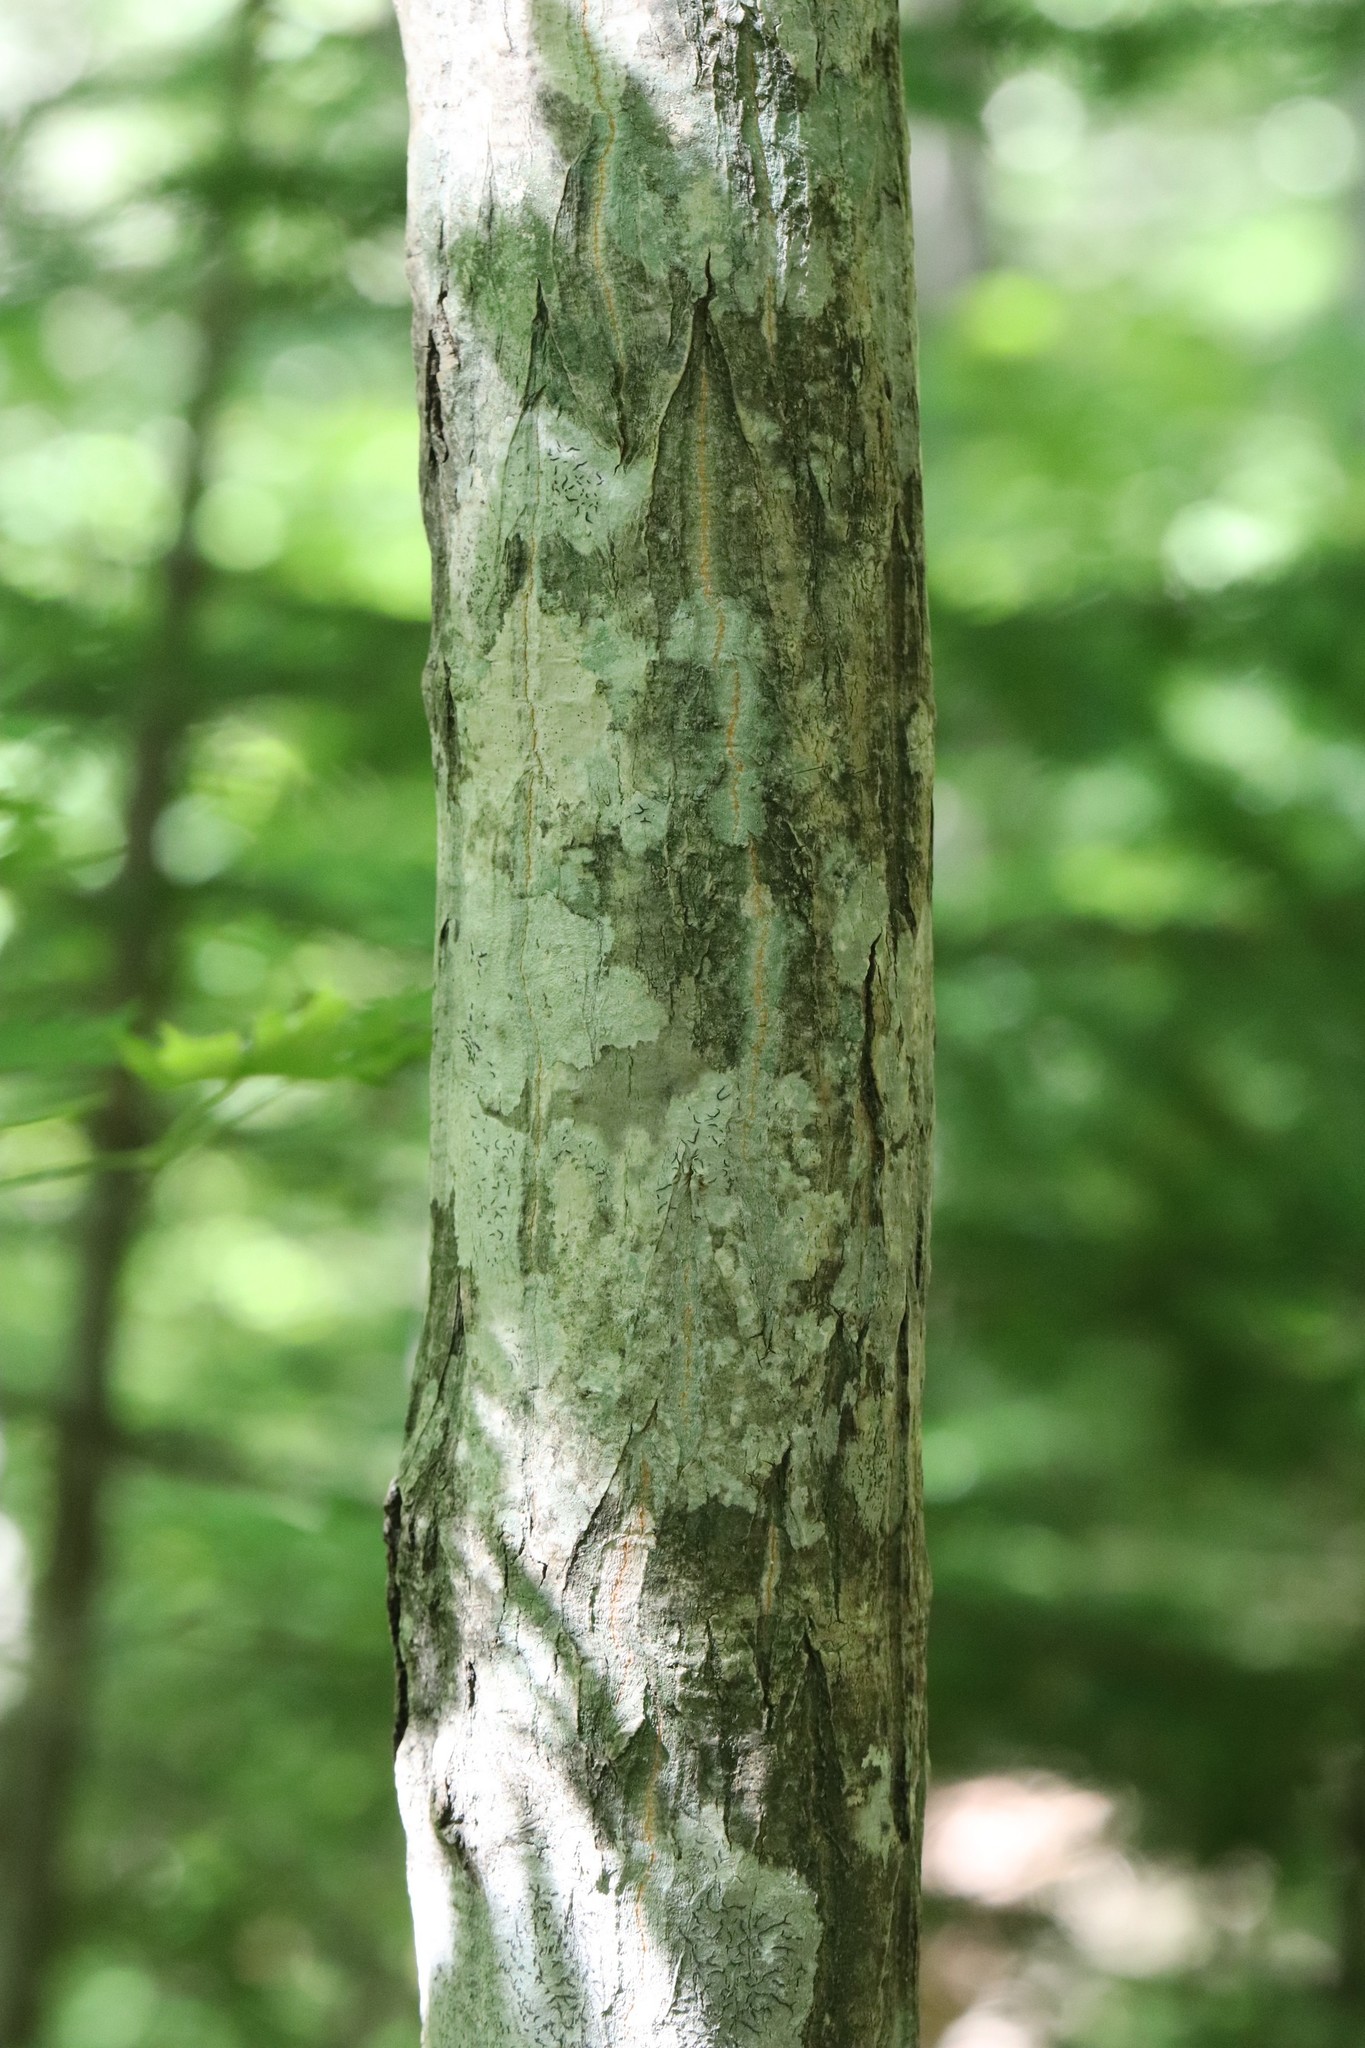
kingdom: Plantae
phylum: Tracheophyta
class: Magnoliopsida
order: Sapindales
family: Sapindaceae
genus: Acer
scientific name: Acer pseudosieboldianum
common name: Korean maple
